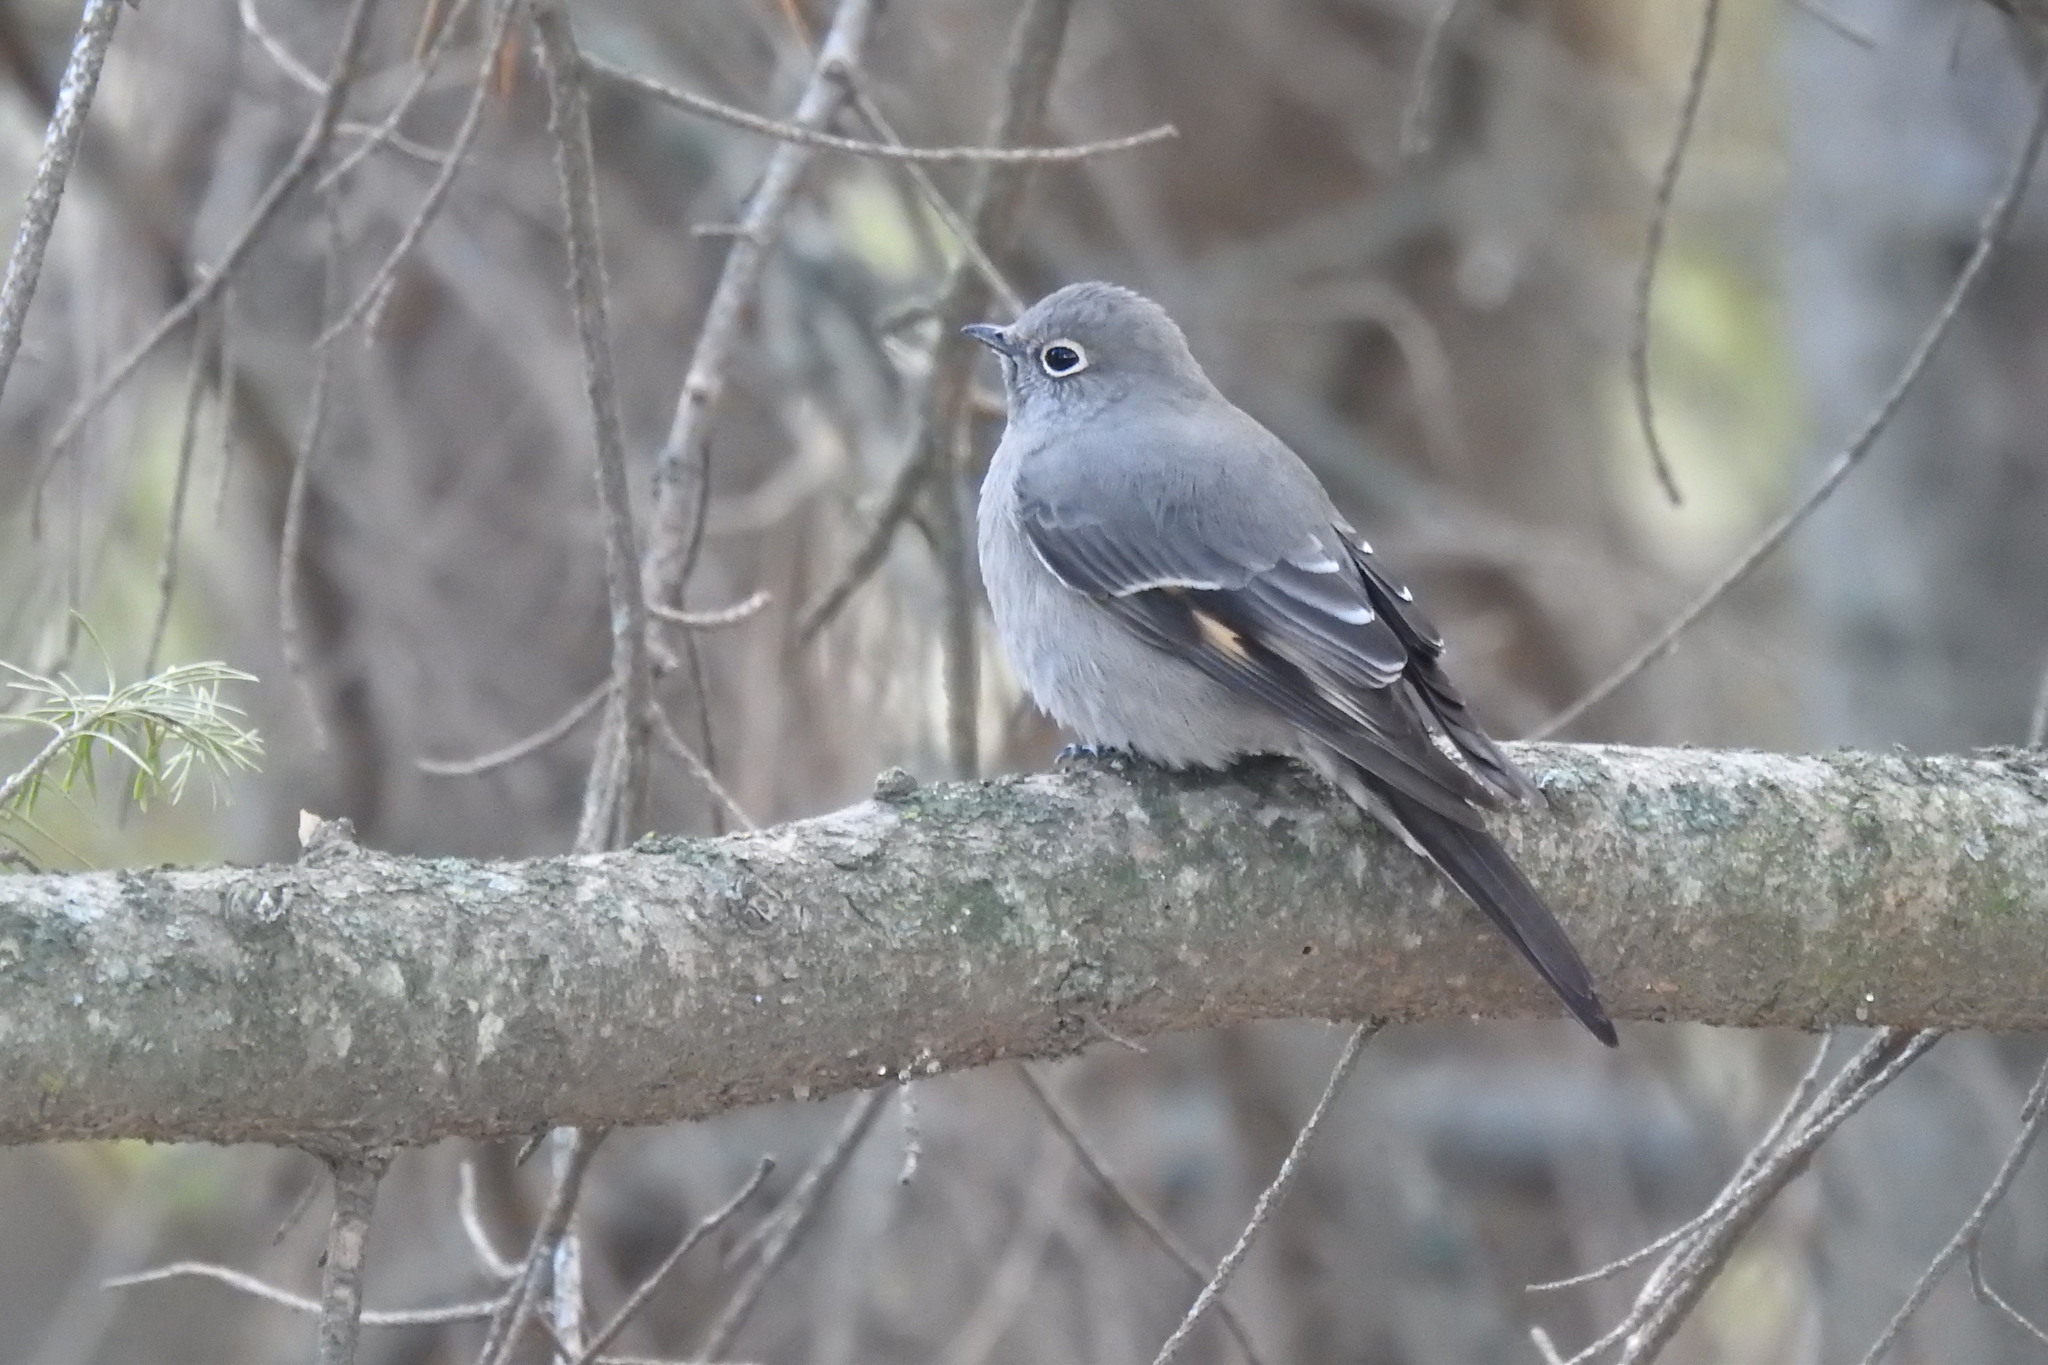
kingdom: Animalia
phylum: Chordata
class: Aves
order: Passeriformes
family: Turdidae
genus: Myadestes
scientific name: Myadestes townsendi
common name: Townsend's solitaire
